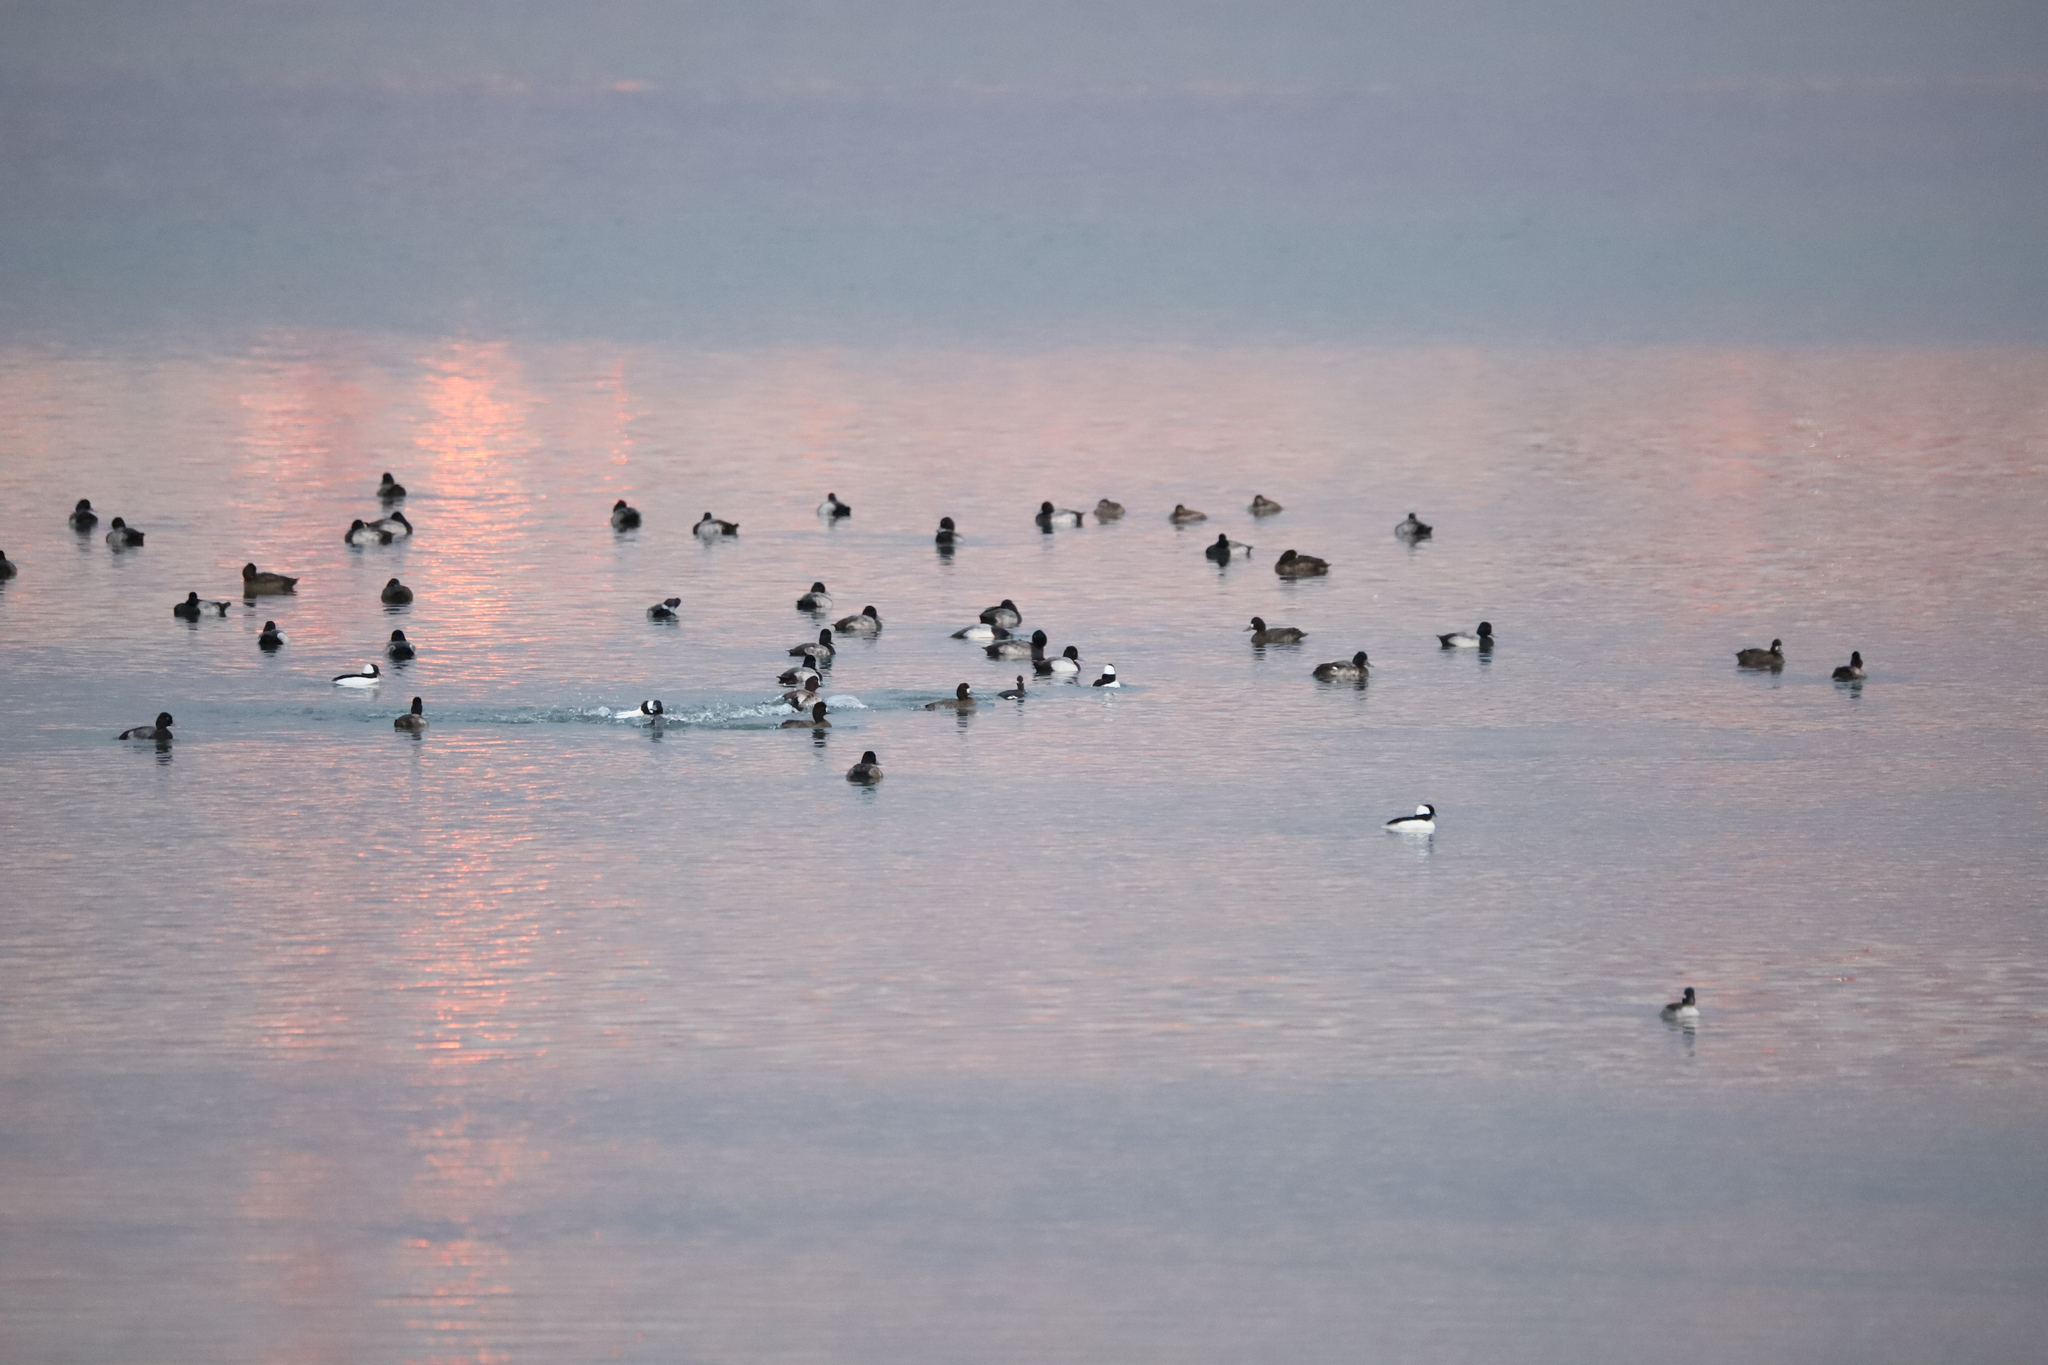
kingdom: Animalia
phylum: Chordata
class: Aves
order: Anseriformes
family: Anatidae
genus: Aythya
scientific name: Aythya affinis
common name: Lesser scaup
